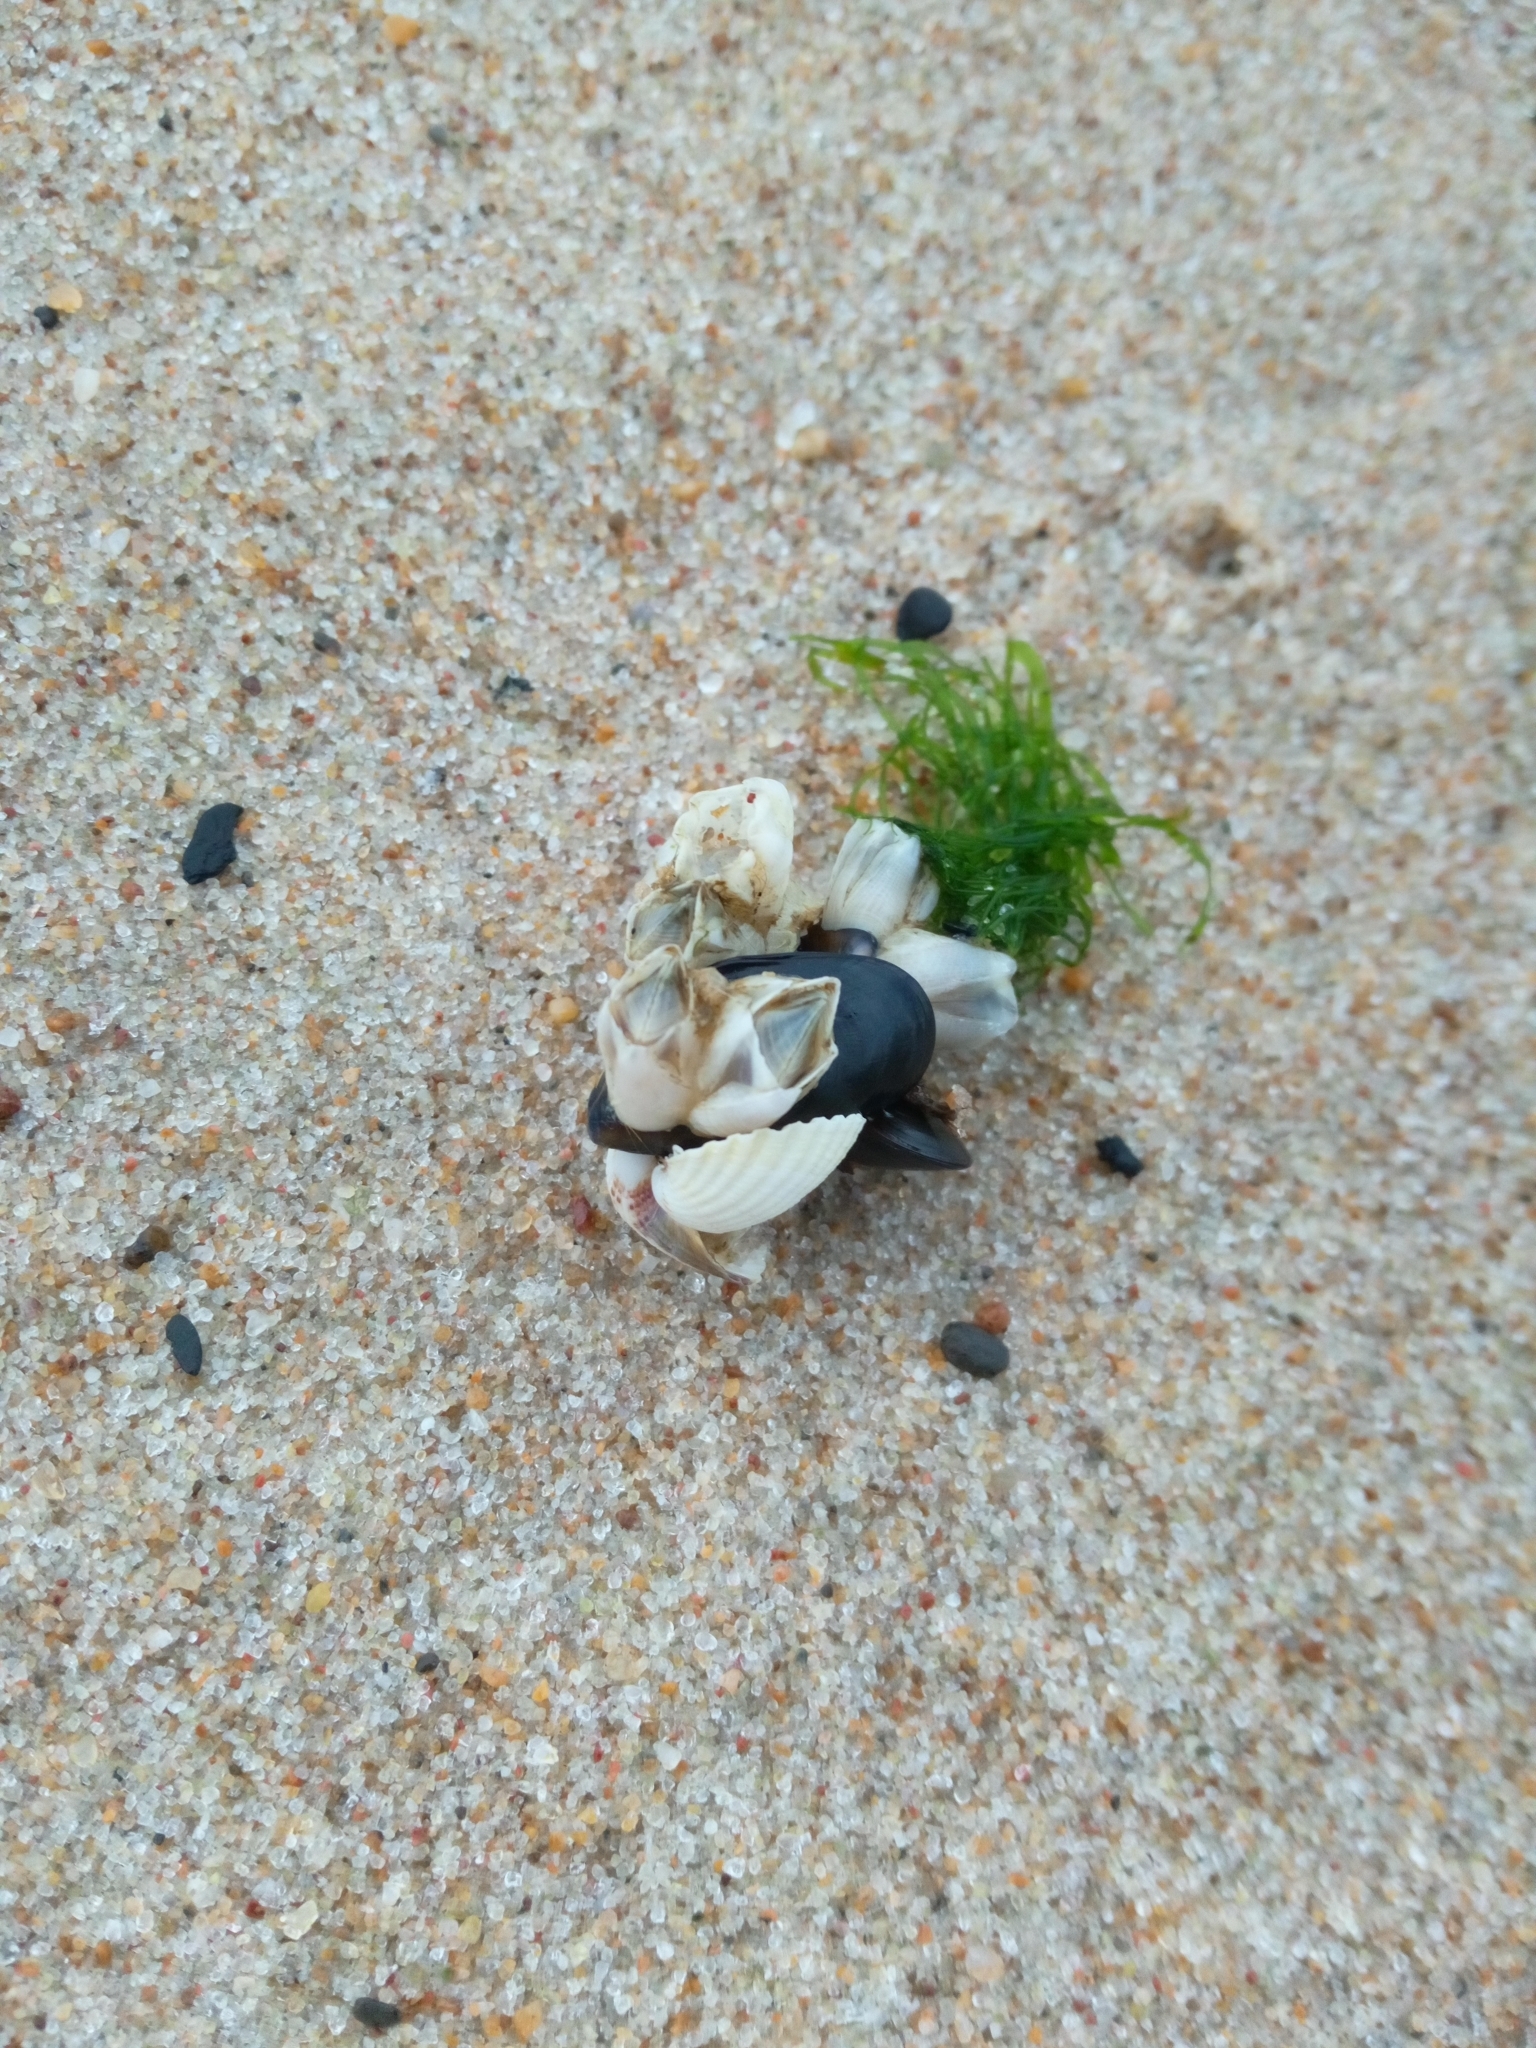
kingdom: Animalia
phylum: Arthropoda
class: Maxillopoda
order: Sessilia
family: Balanidae
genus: Amphibalanus
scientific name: Amphibalanus improvisus
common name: Bay barnacle
